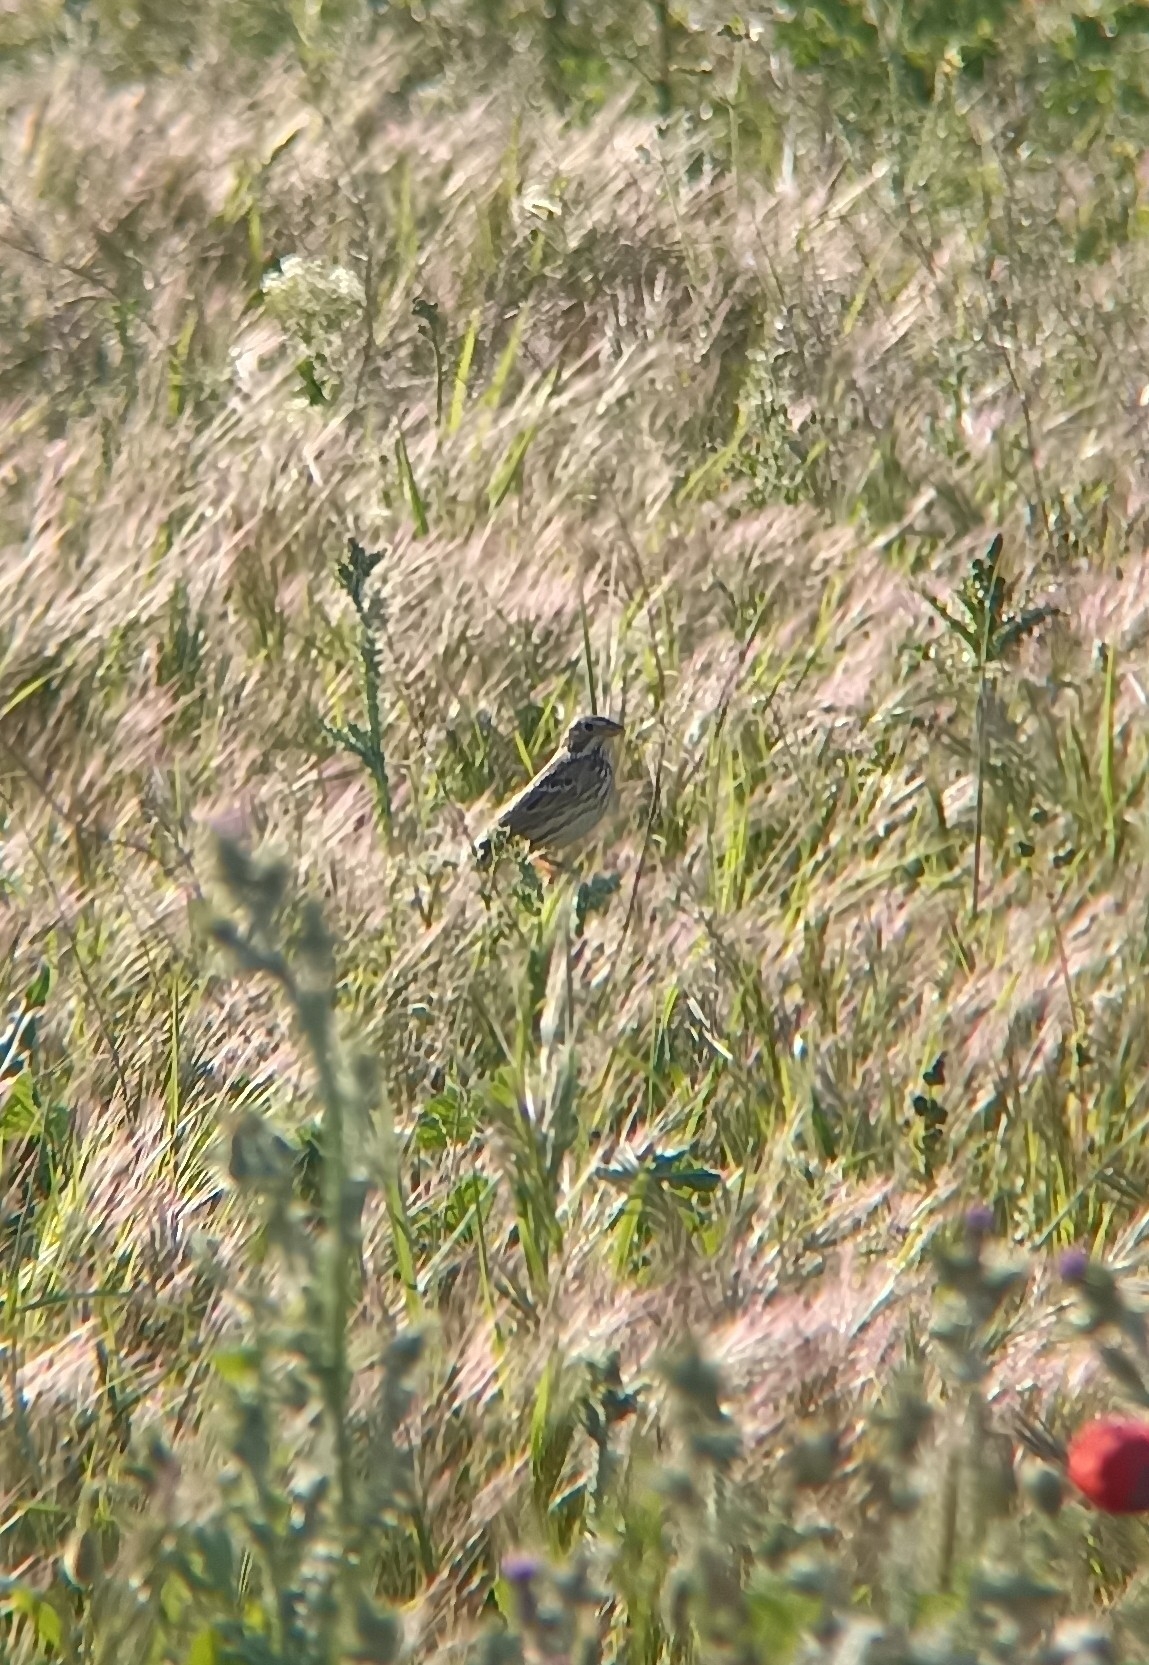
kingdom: Animalia
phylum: Chordata
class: Aves
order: Passeriformes
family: Emberizidae
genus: Emberiza
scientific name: Emberiza calandra
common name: Corn bunting
